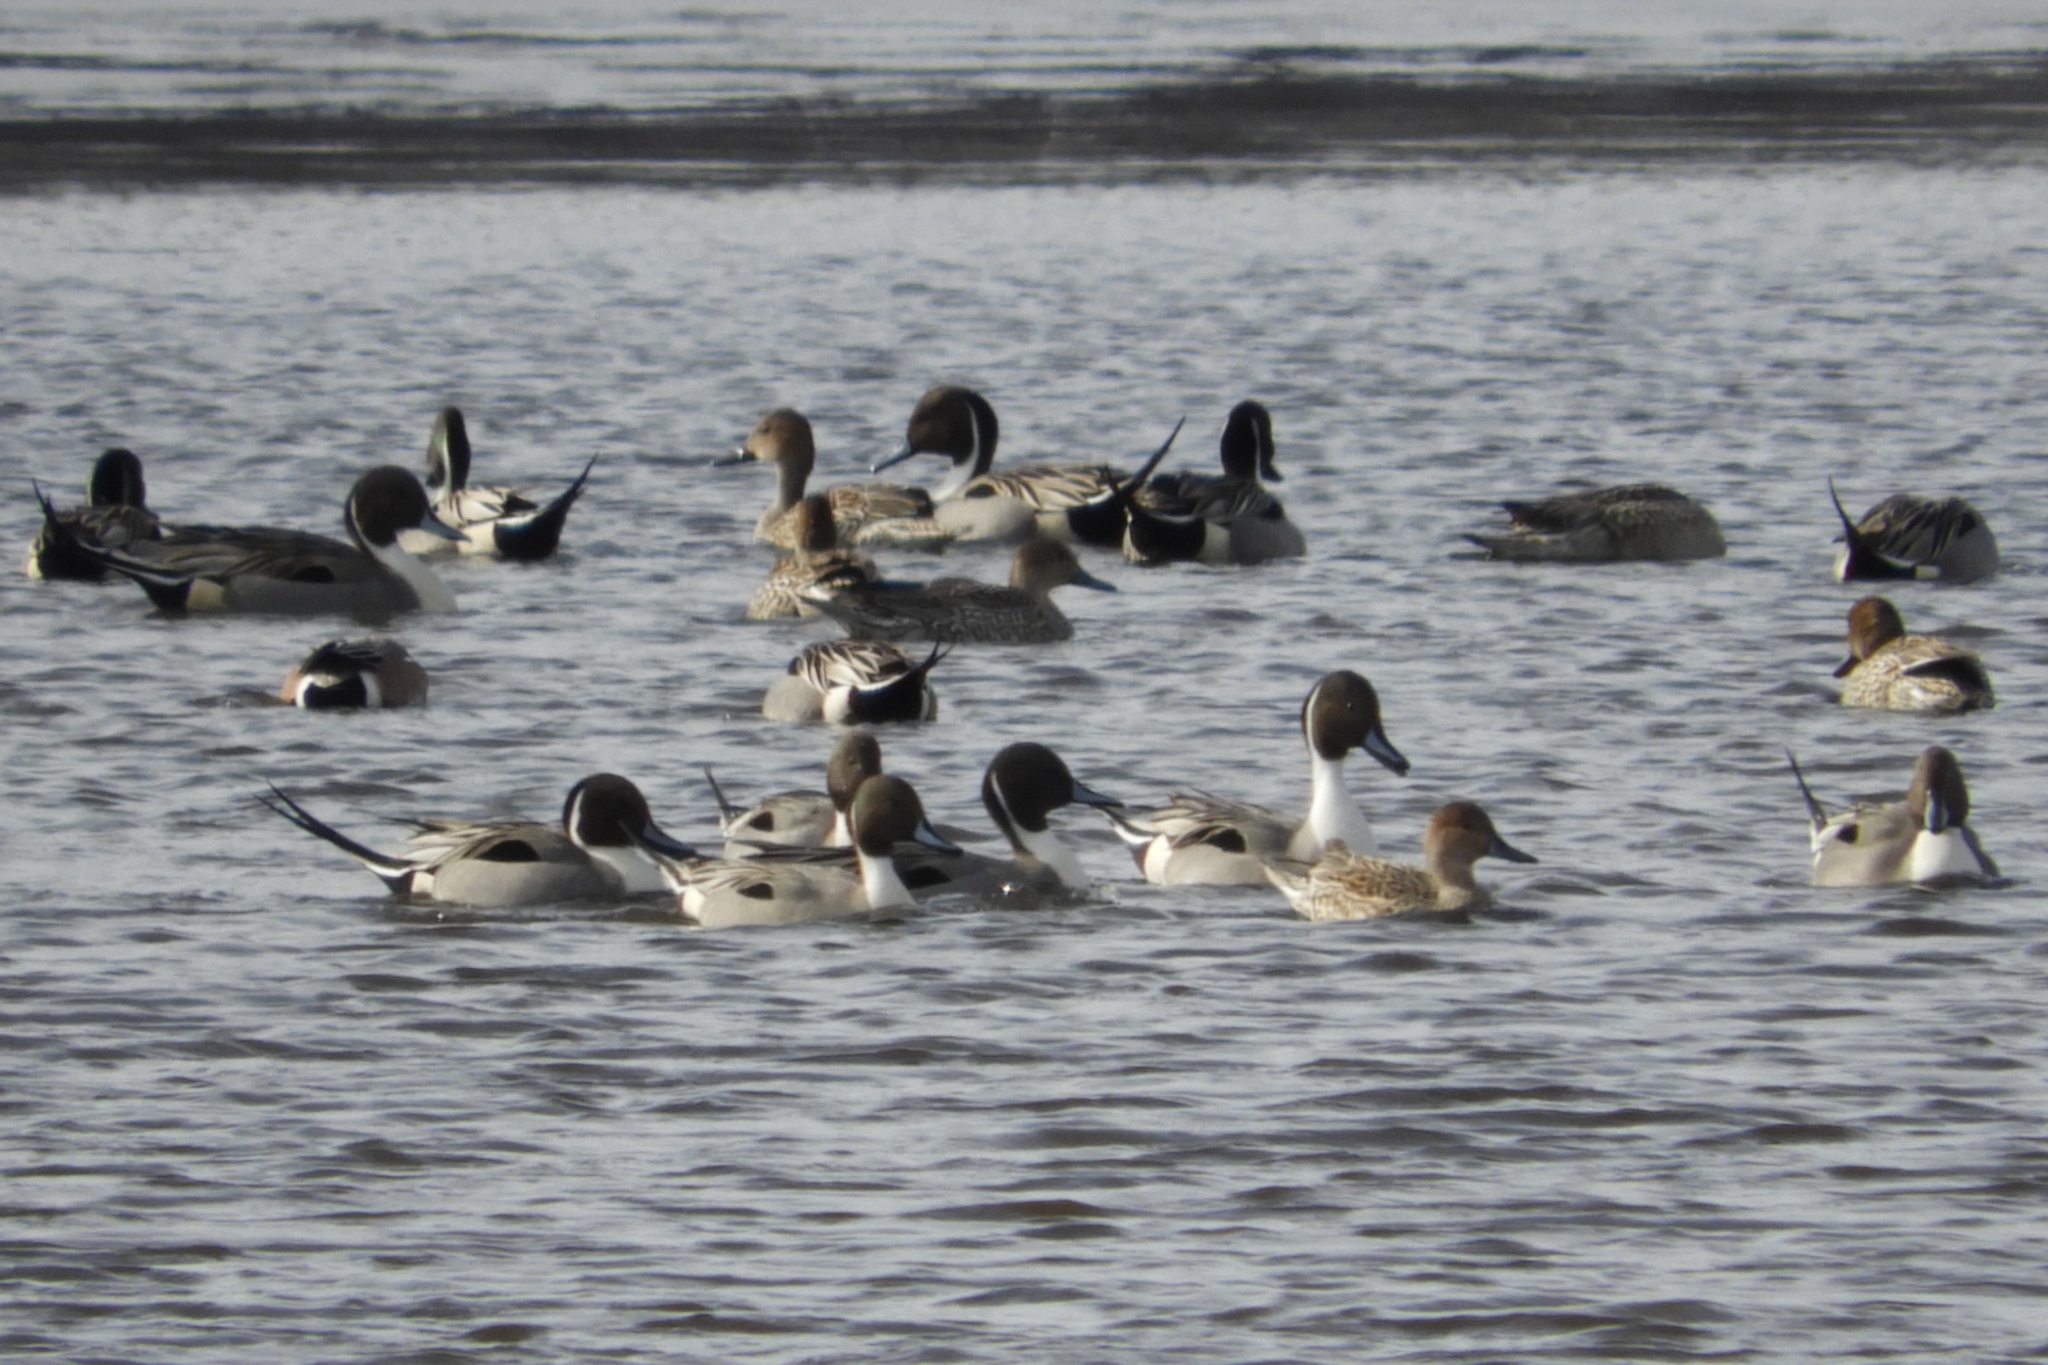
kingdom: Animalia
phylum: Chordata
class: Aves
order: Anseriformes
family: Anatidae
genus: Anas
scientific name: Anas acuta
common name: Northern pintail
